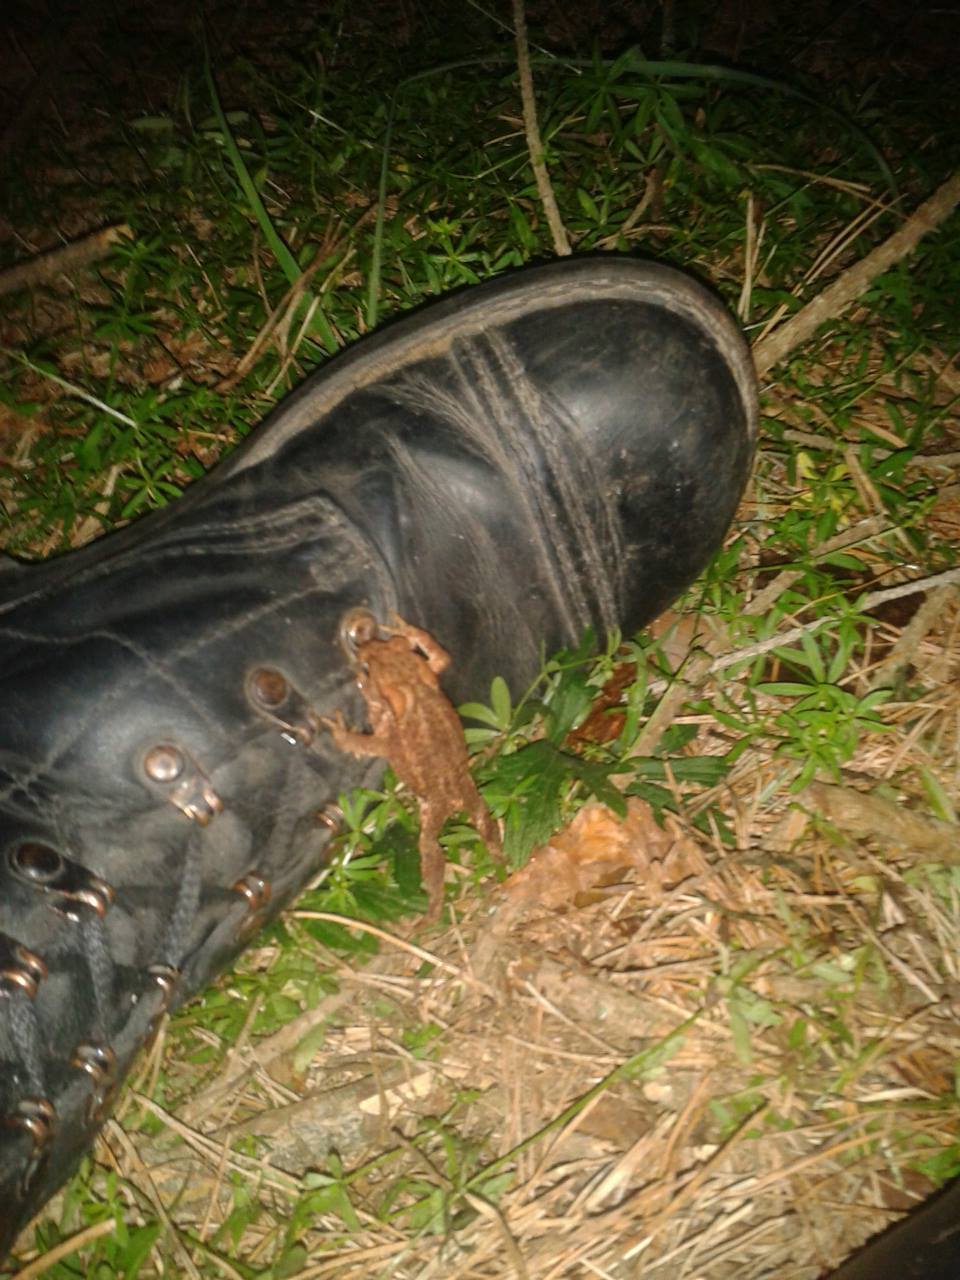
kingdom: Animalia
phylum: Chordata
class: Amphibia
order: Anura
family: Bufonidae
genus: Bufo
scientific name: Bufo bufo
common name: Common toad
